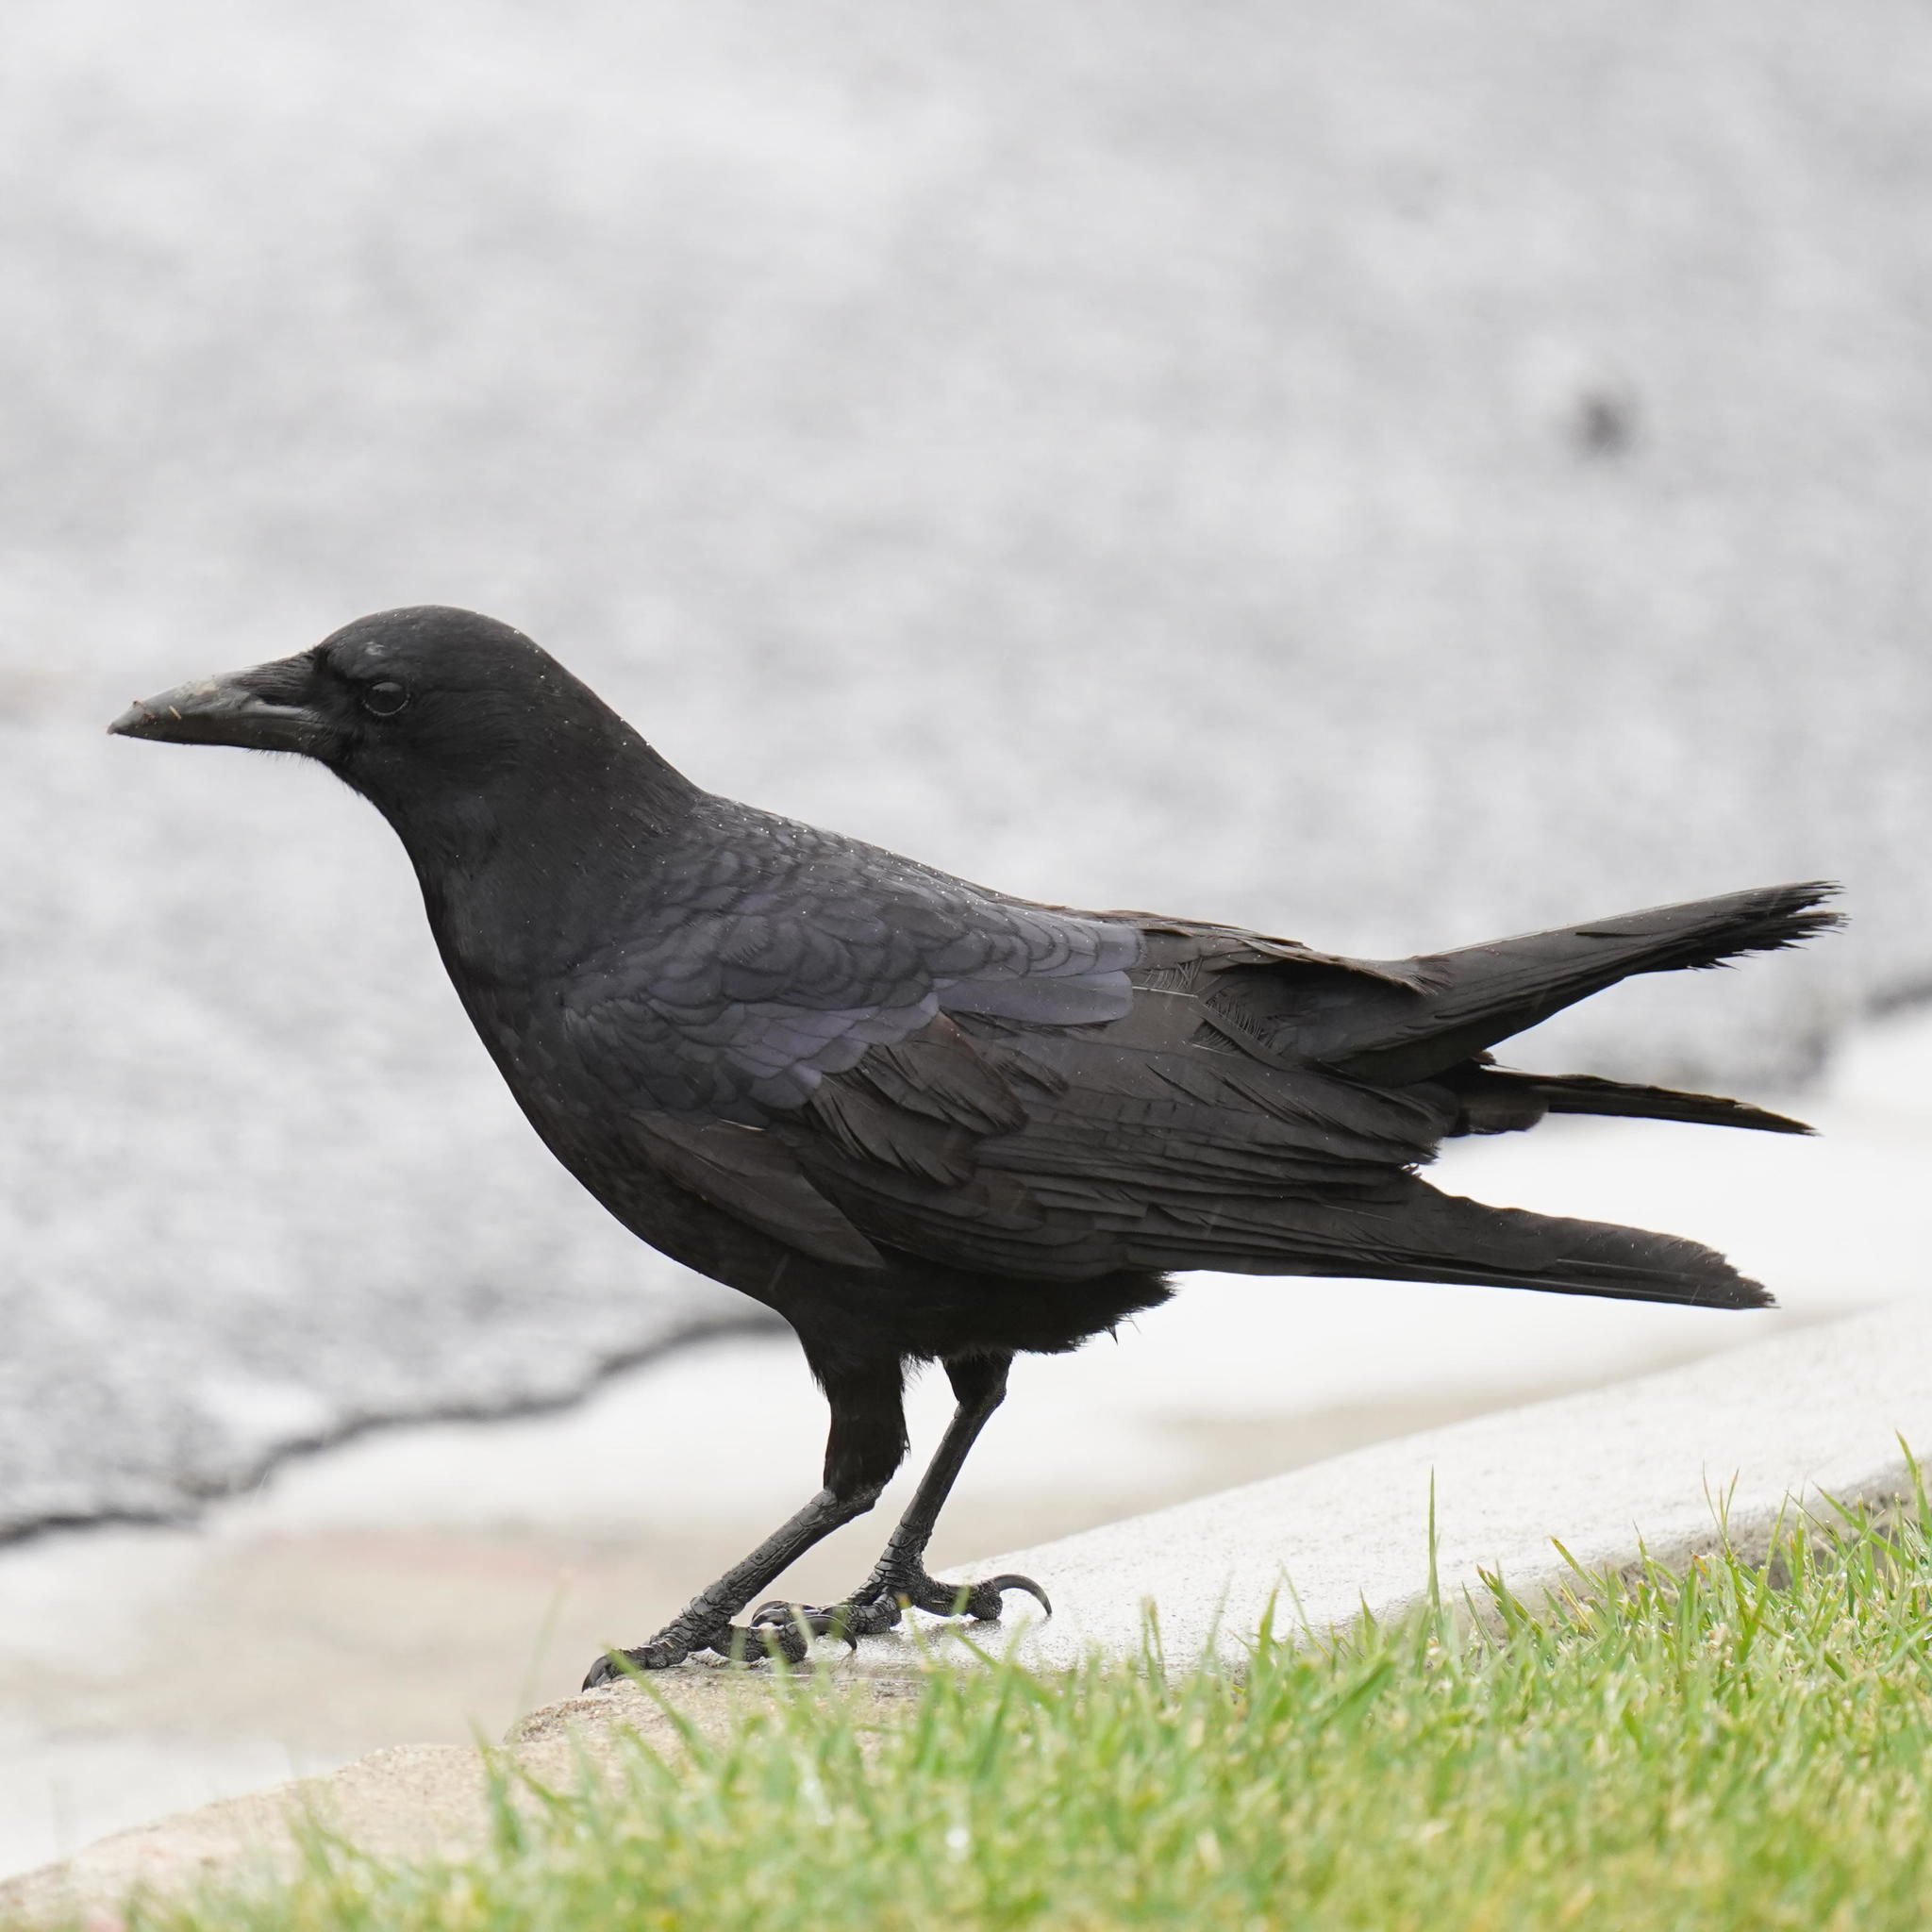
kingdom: Animalia
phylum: Chordata
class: Aves
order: Passeriformes
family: Corvidae
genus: Corvus
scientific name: Corvus brachyrhynchos
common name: American crow
